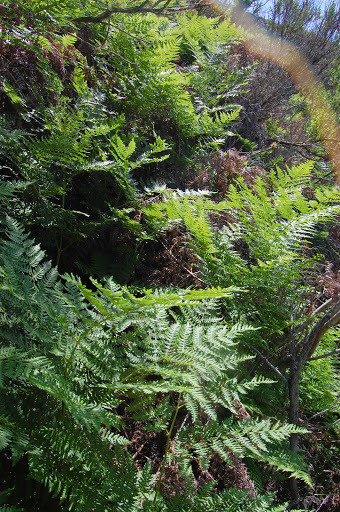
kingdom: Plantae
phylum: Tracheophyta
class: Polypodiopsida
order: Polypodiales
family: Dennstaedtiaceae
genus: Pteridium
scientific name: Pteridium aquilinum
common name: Bracken
